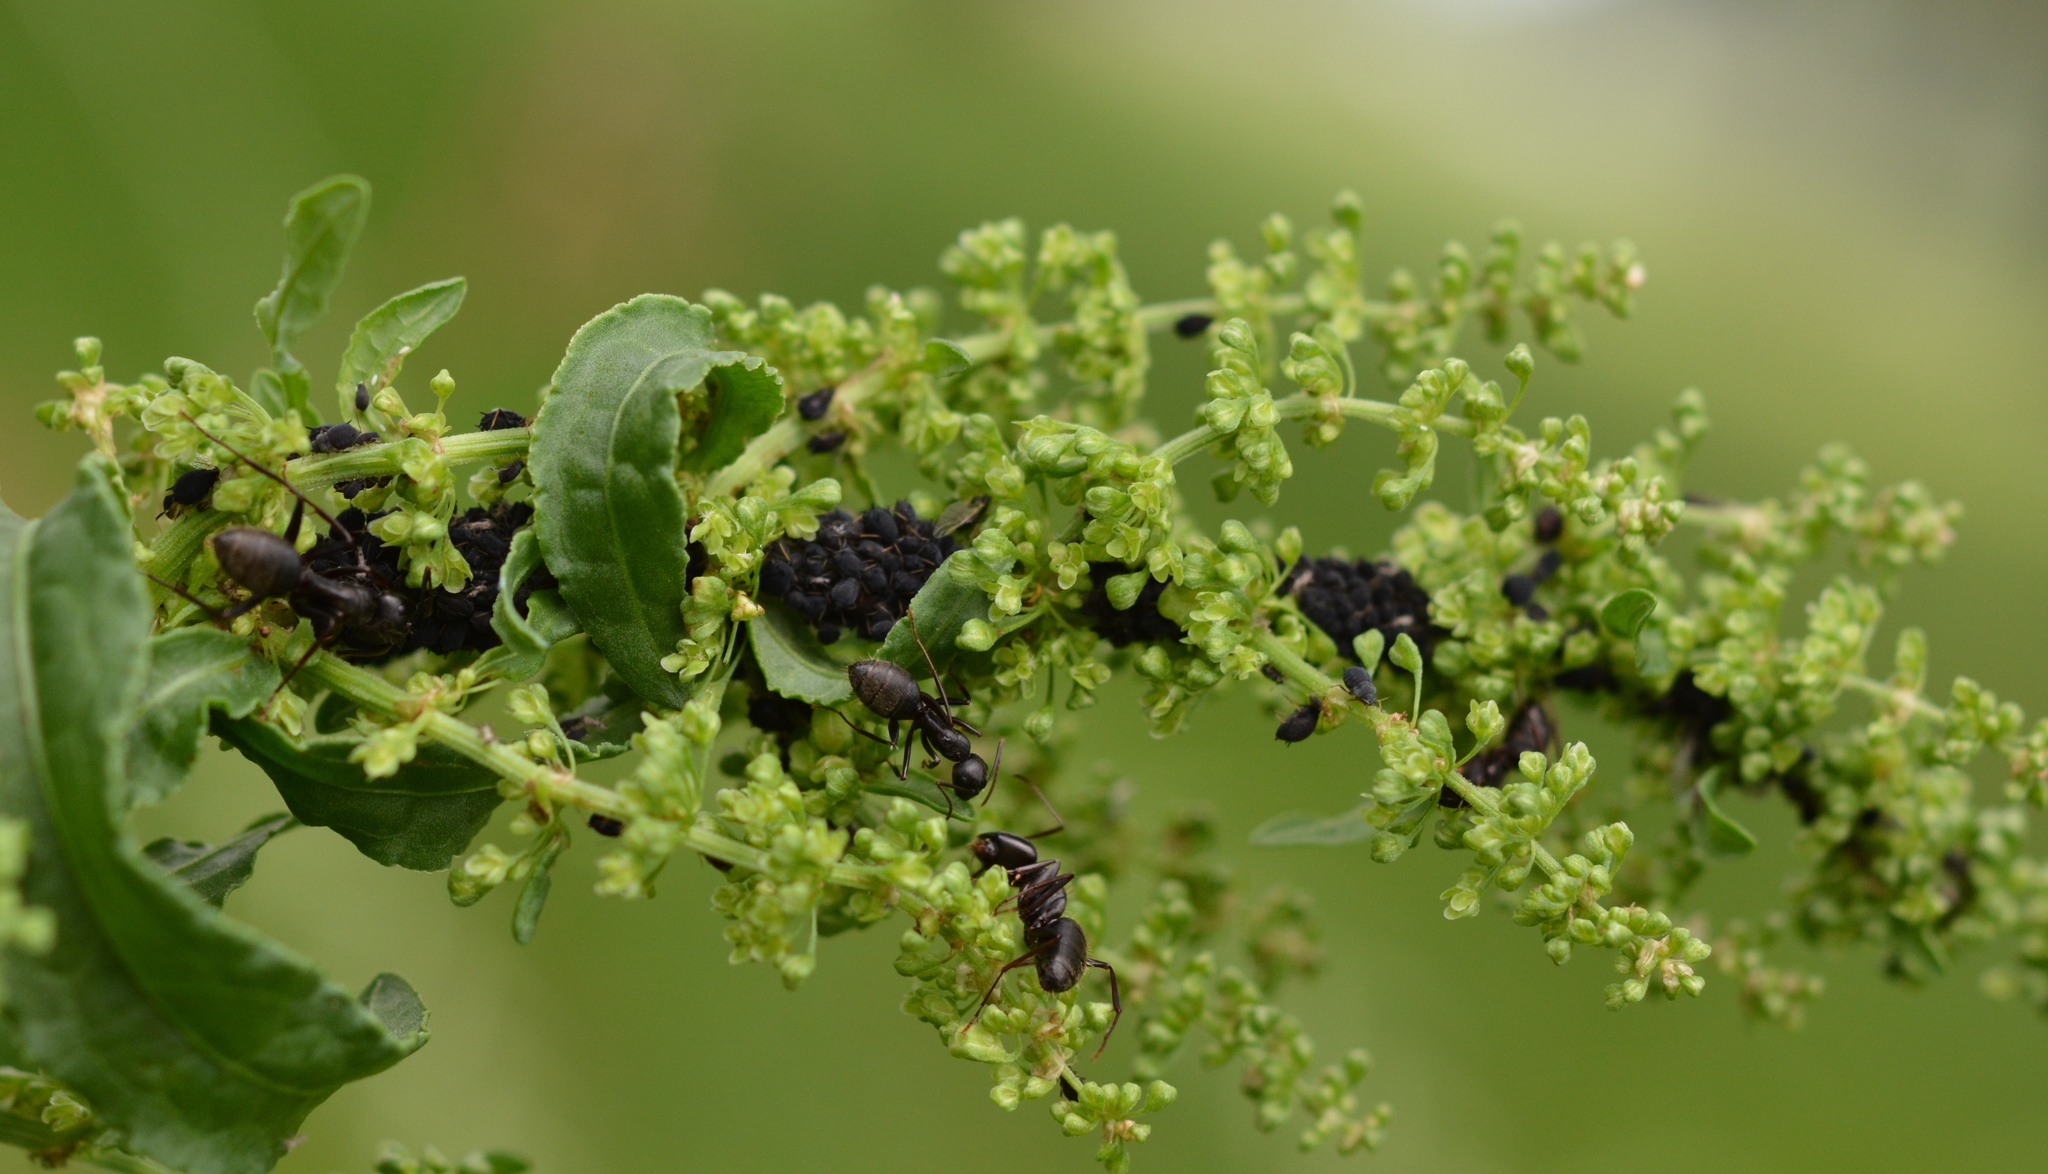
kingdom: Animalia
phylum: Arthropoda
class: Insecta
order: Hymenoptera
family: Formicidae
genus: Camponotus
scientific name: Camponotus pennsylvanicus
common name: Black carpenter ant
